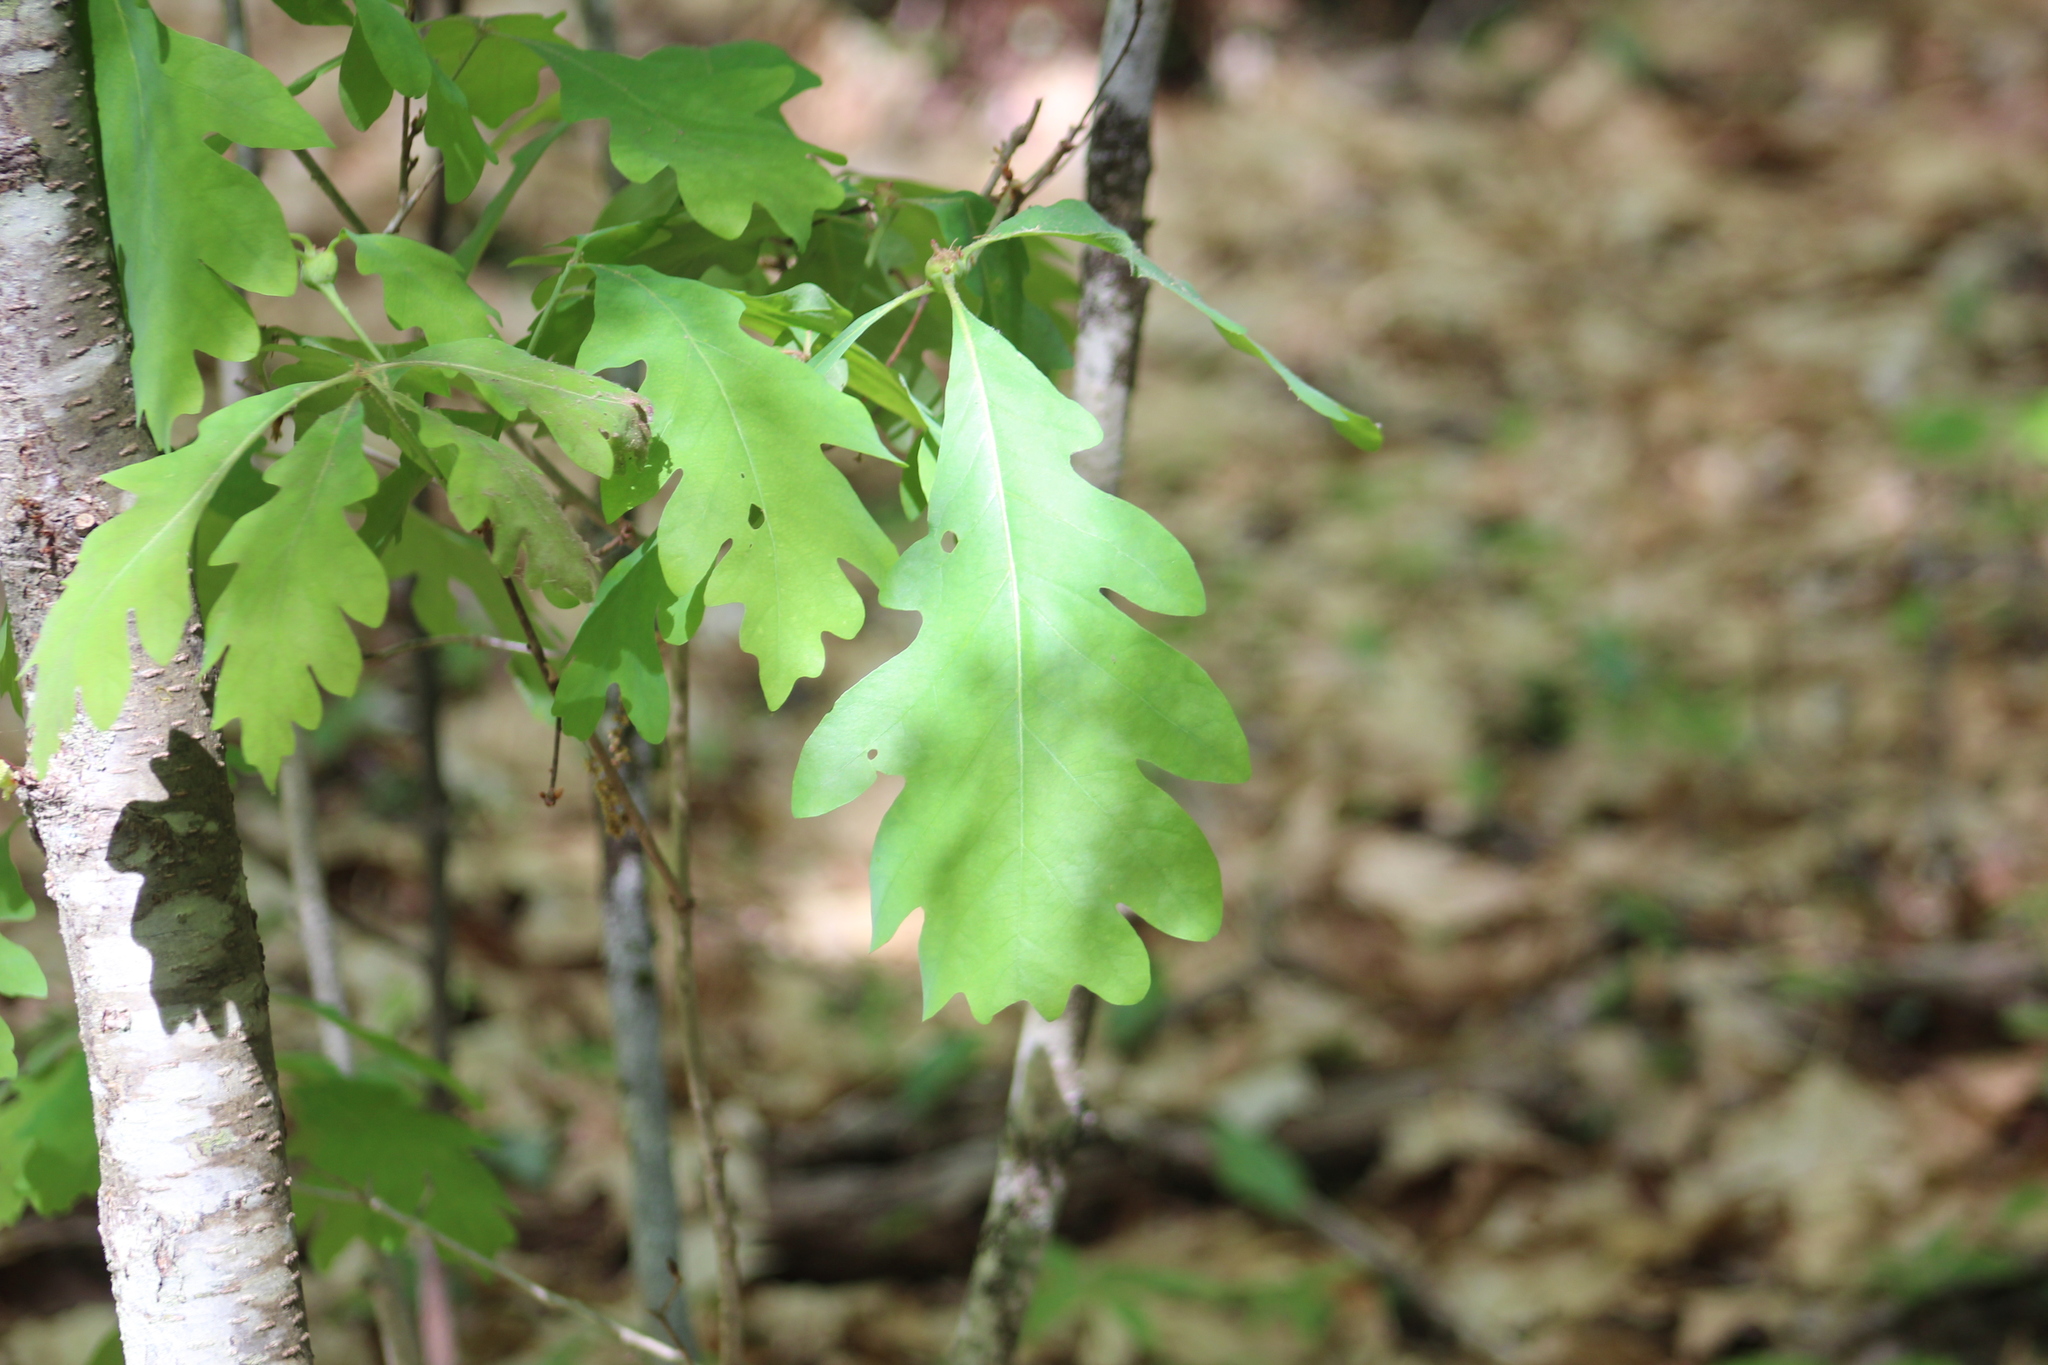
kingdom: Plantae
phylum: Tracheophyta
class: Magnoliopsida
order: Fagales
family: Fagaceae
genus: Quercus
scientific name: Quercus alba
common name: White oak
